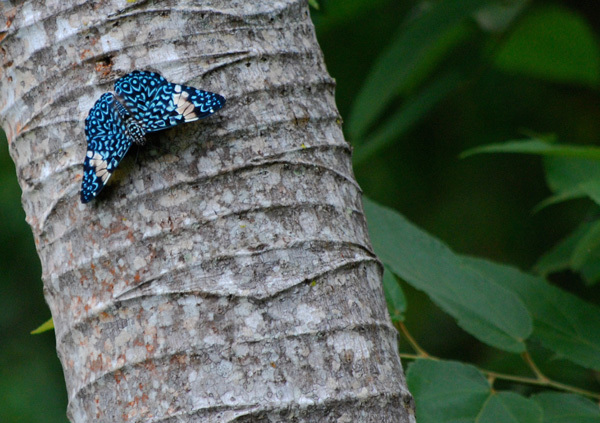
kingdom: Animalia
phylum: Arthropoda
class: Insecta
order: Lepidoptera
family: Nymphalidae
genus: Hamadryas
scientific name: Hamadryas amphinome
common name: Red cracker
